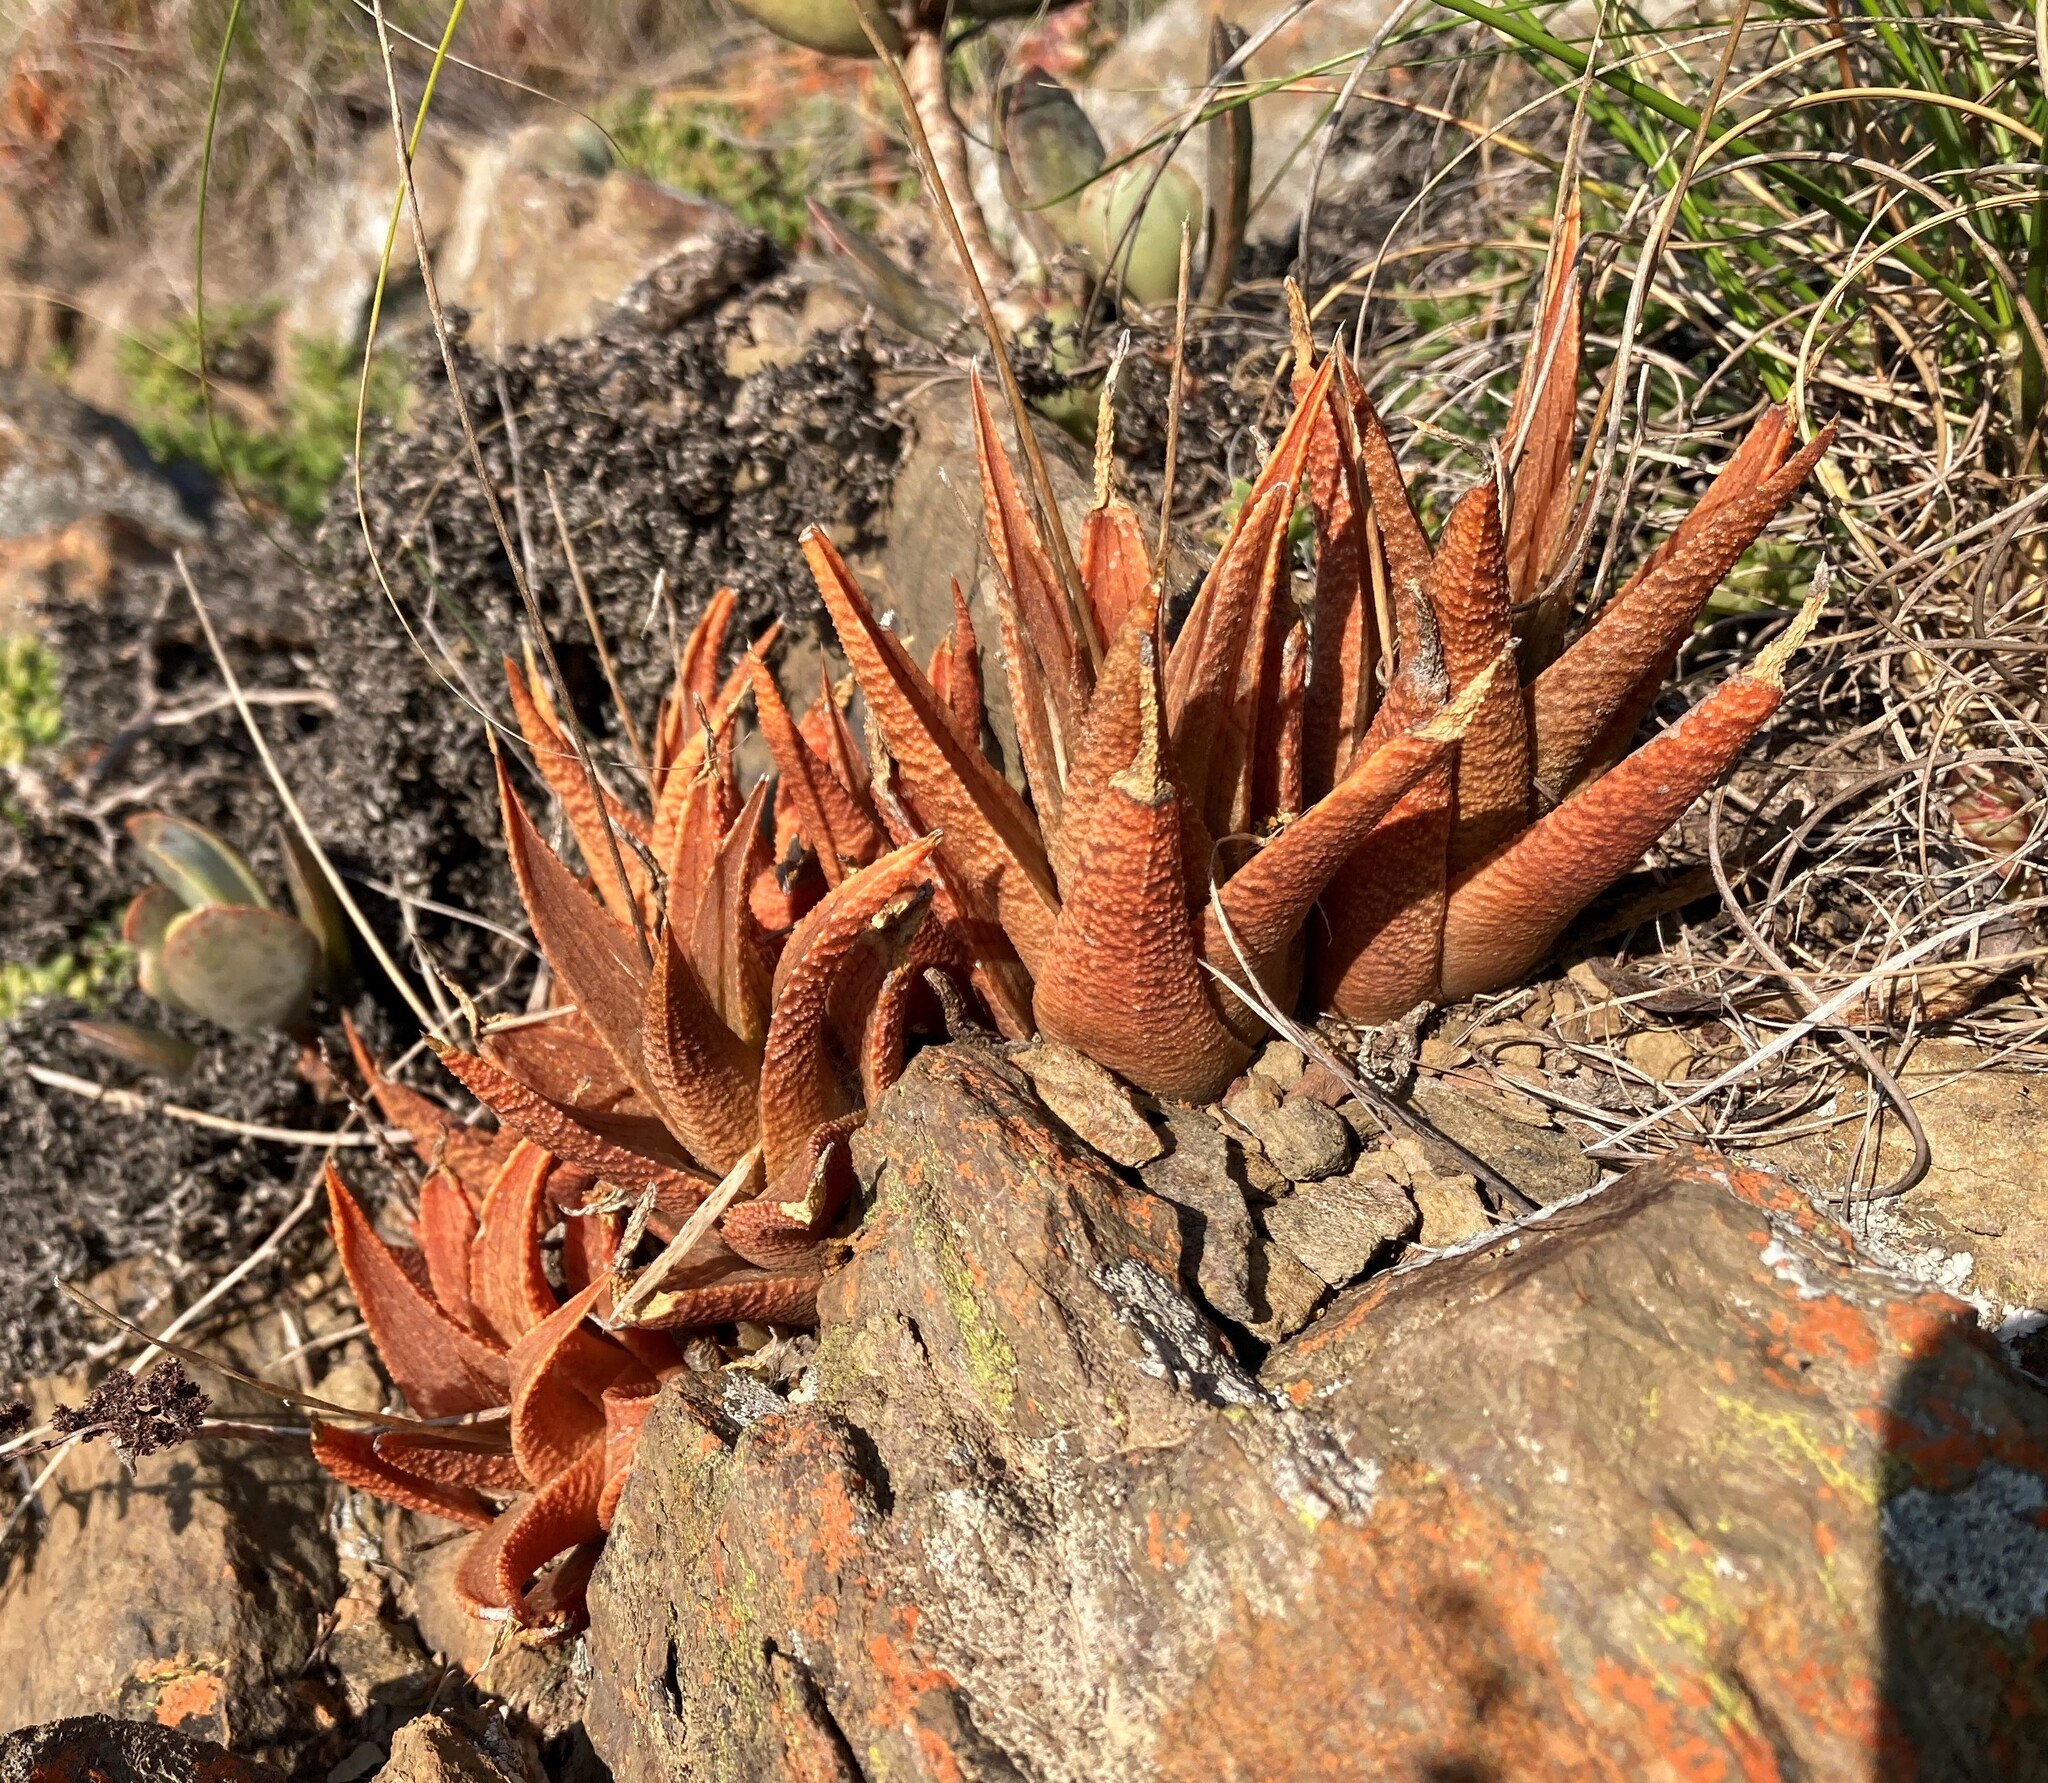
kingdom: Plantae
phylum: Tracheophyta
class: Liliopsida
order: Asparagales
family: Asphodelaceae
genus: Haworthiopsis
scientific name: Haworthiopsis venosa
